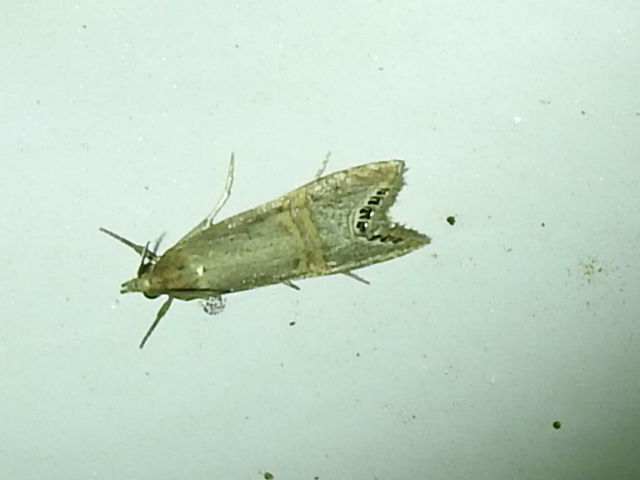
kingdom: Animalia
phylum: Arthropoda
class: Insecta
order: Lepidoptera
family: Crambidae
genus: Euchromius
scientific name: Euchromius ocellea
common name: Necklace veneer moth
